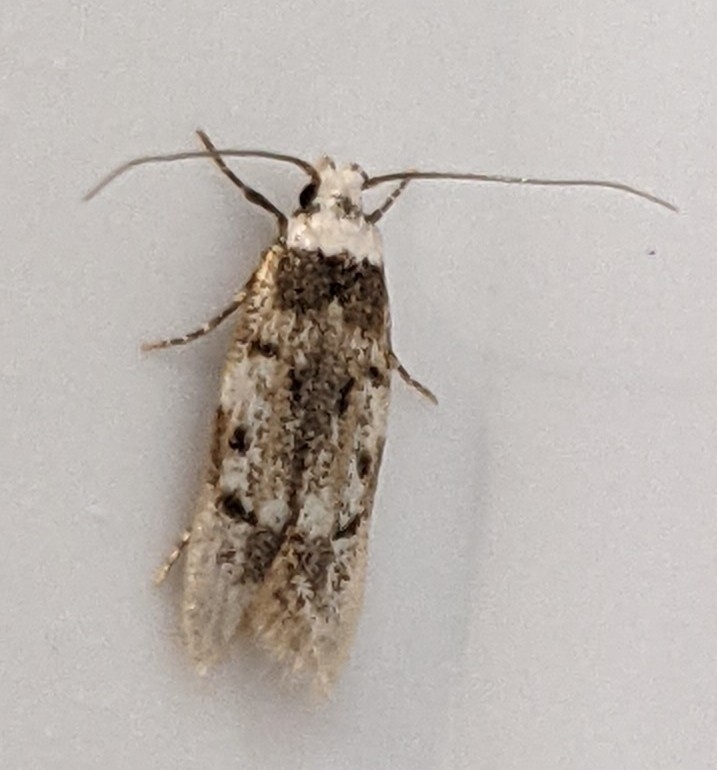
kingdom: Animalia
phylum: Arthropoda
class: Insecta
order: Lepidoptera
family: Oecophoridae
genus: Endrosis
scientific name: Endrosis sarcitrella
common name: White-shouldered house moth
